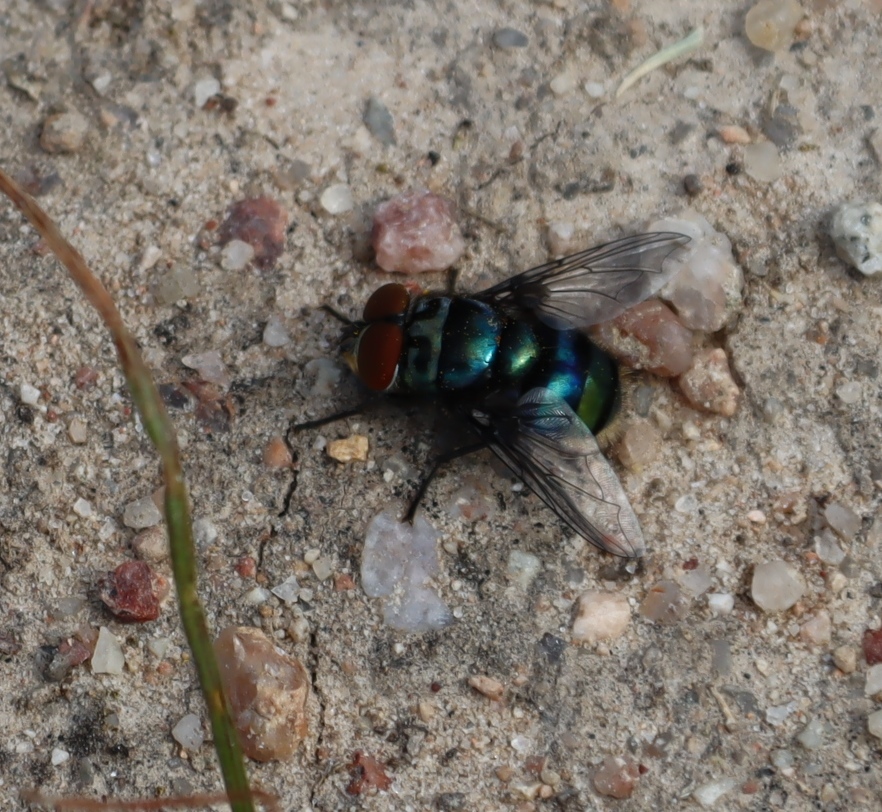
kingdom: Animalia
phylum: Arthropoda
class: Insecta
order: Diptera
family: Calliphoridae
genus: Chrysomya
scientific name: Chrysomya chloropyga
